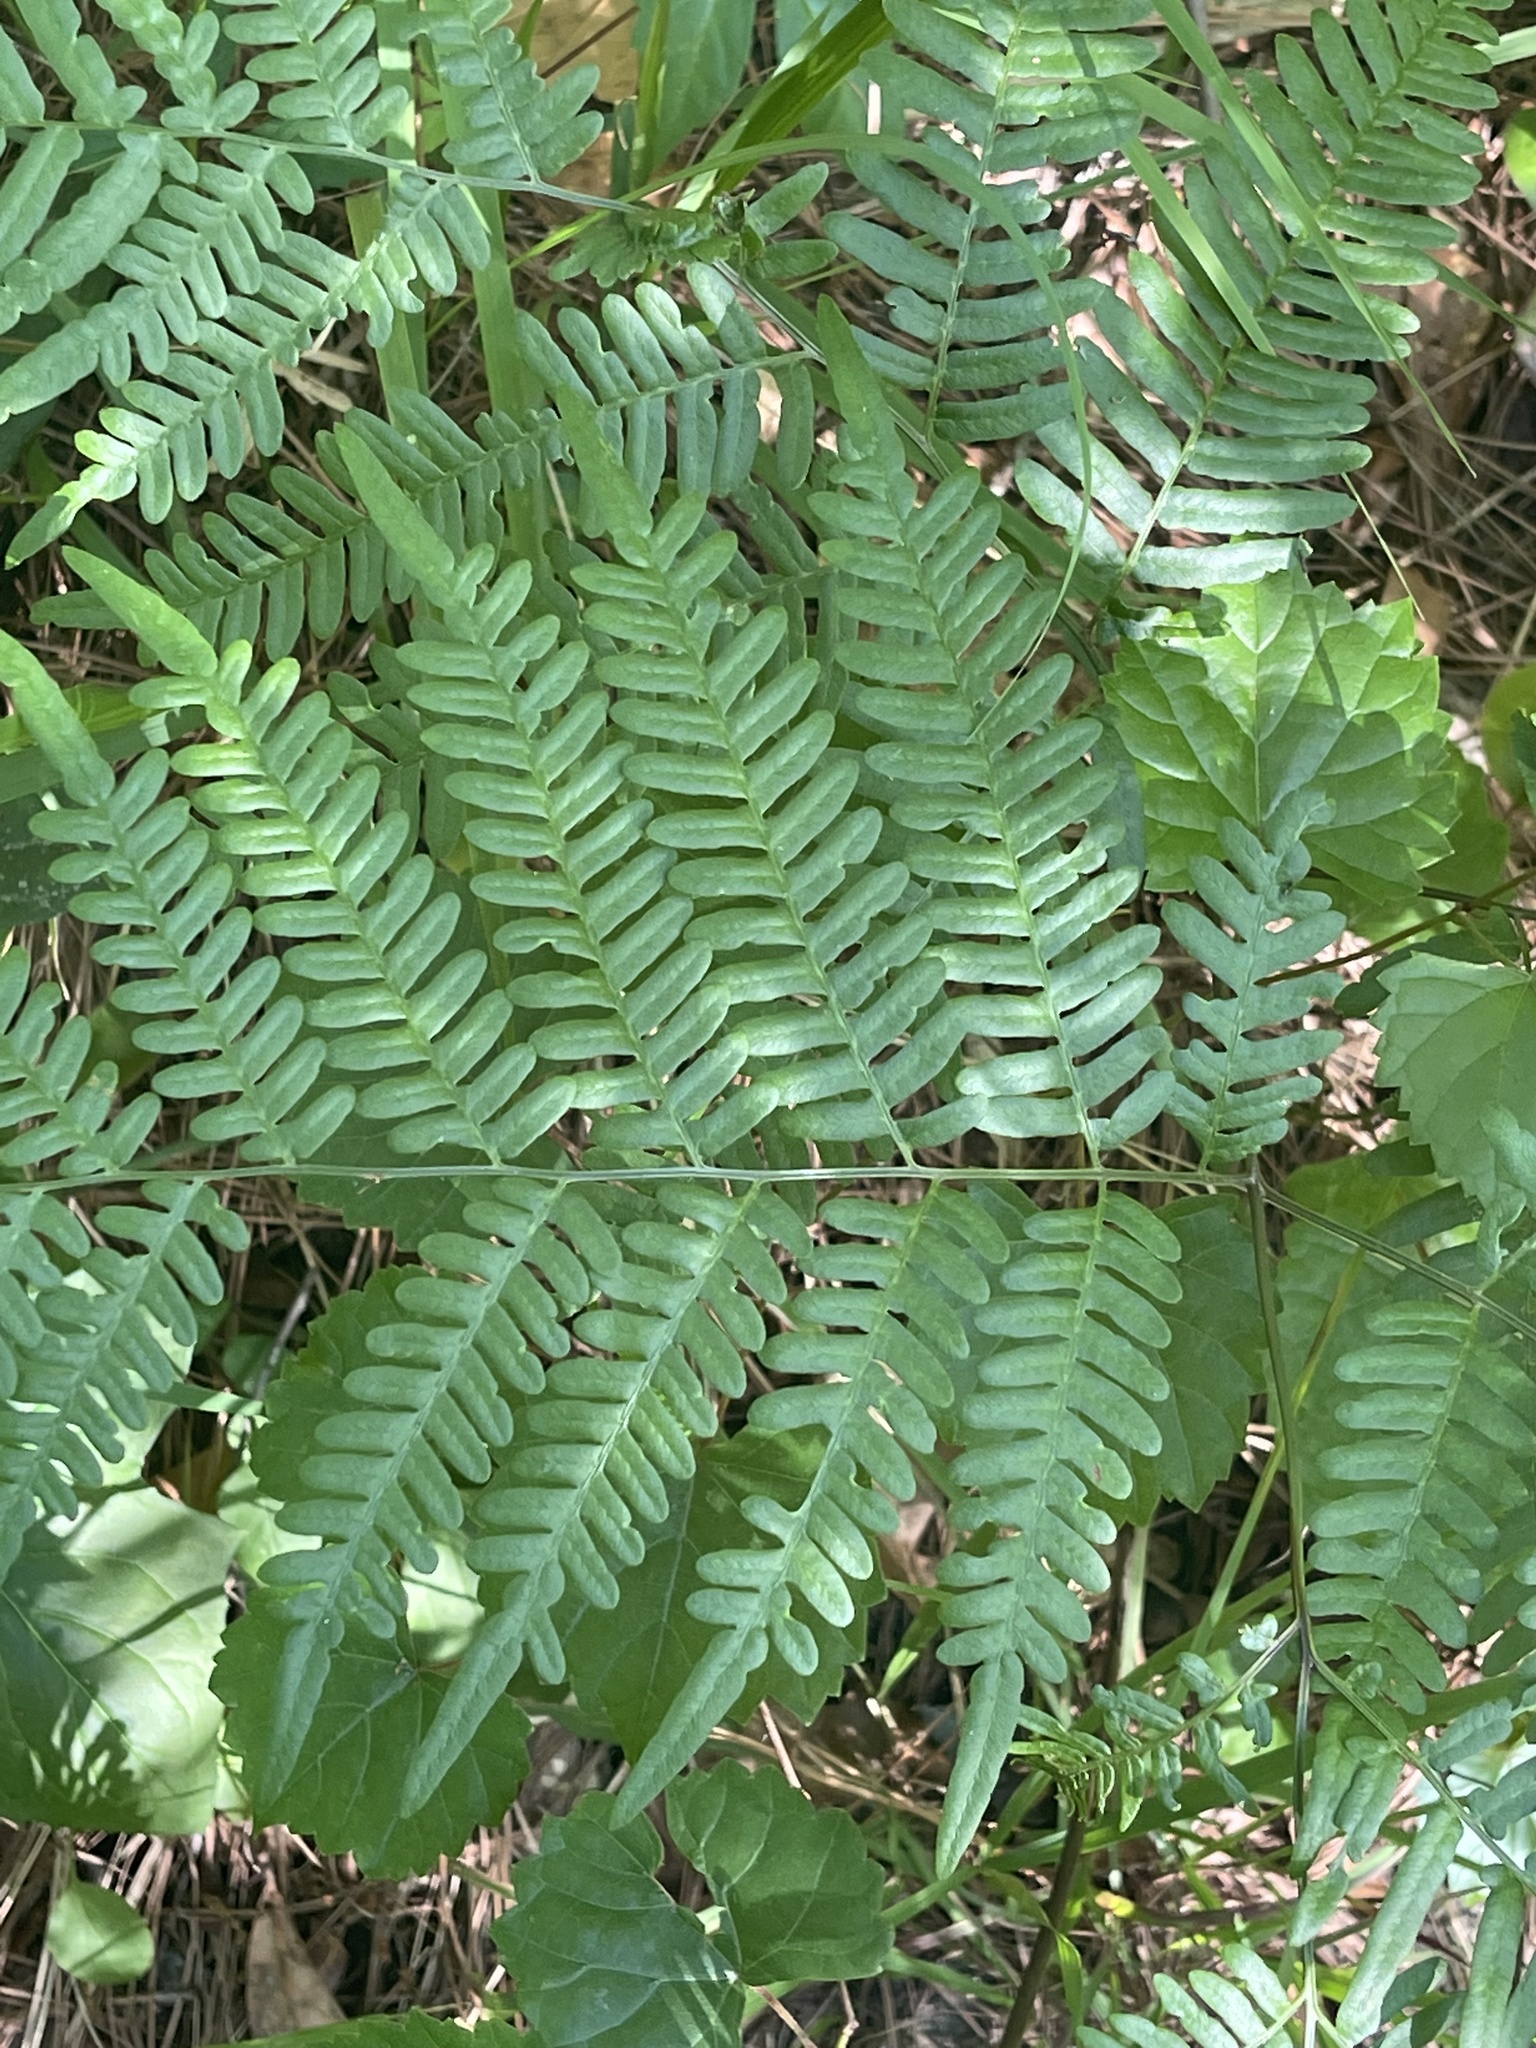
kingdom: Plantae
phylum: Tracheophyta
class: Polypodiopsida
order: Polypodiales
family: Dennstaedtiaceae
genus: Pteridium
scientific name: Pteridium
